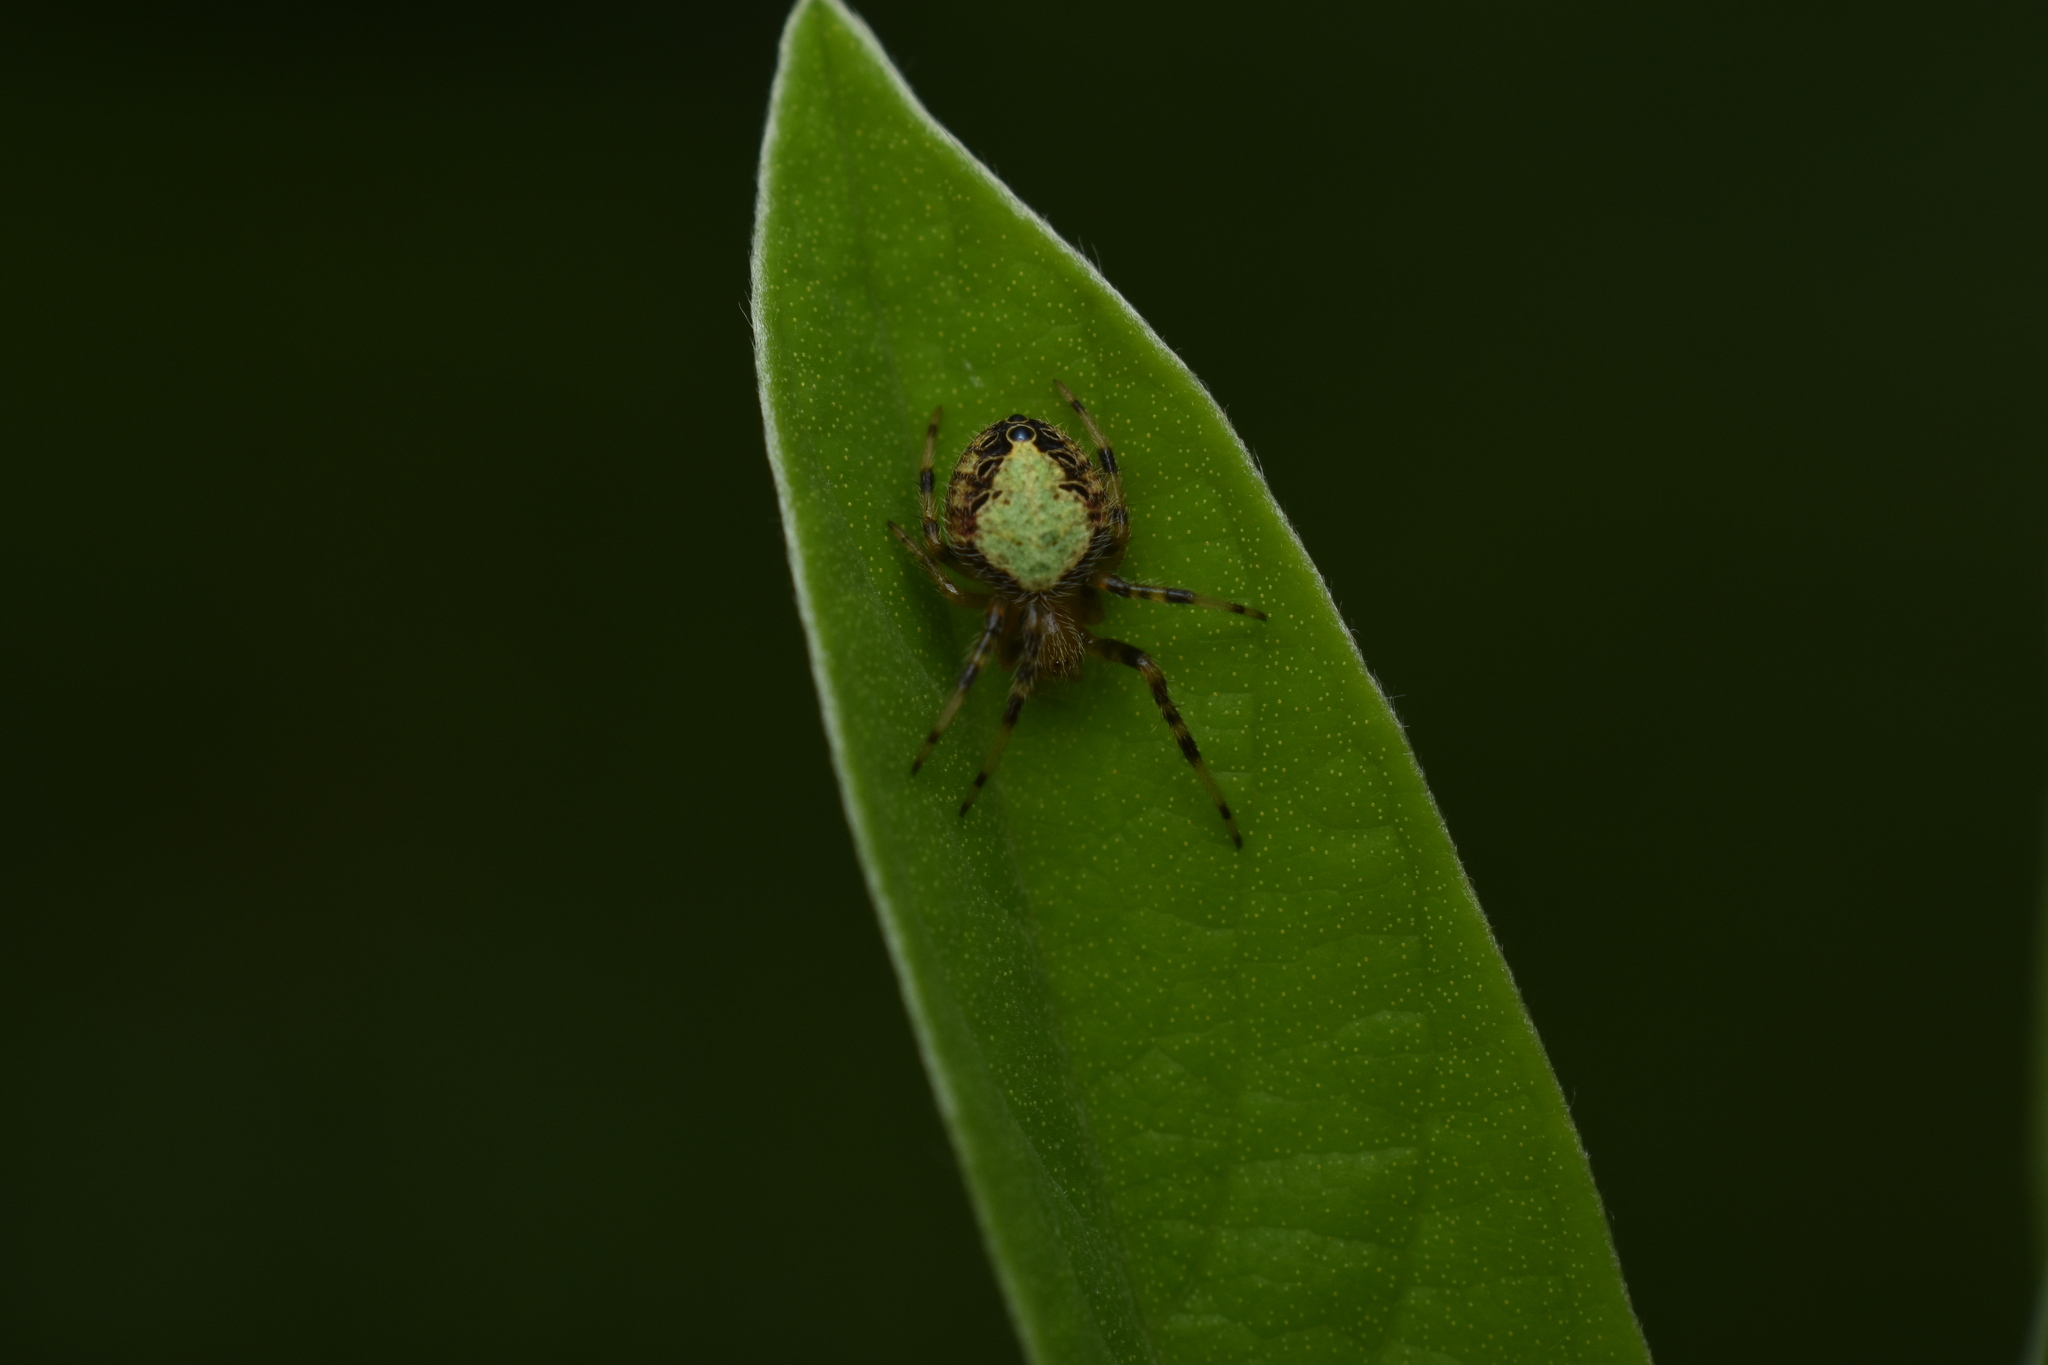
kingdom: Animalia
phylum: Arthropoda
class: Arachnida
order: Araneae
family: Araneidae
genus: Eriophora
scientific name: Eriophora ravilla
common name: Orb weavers
